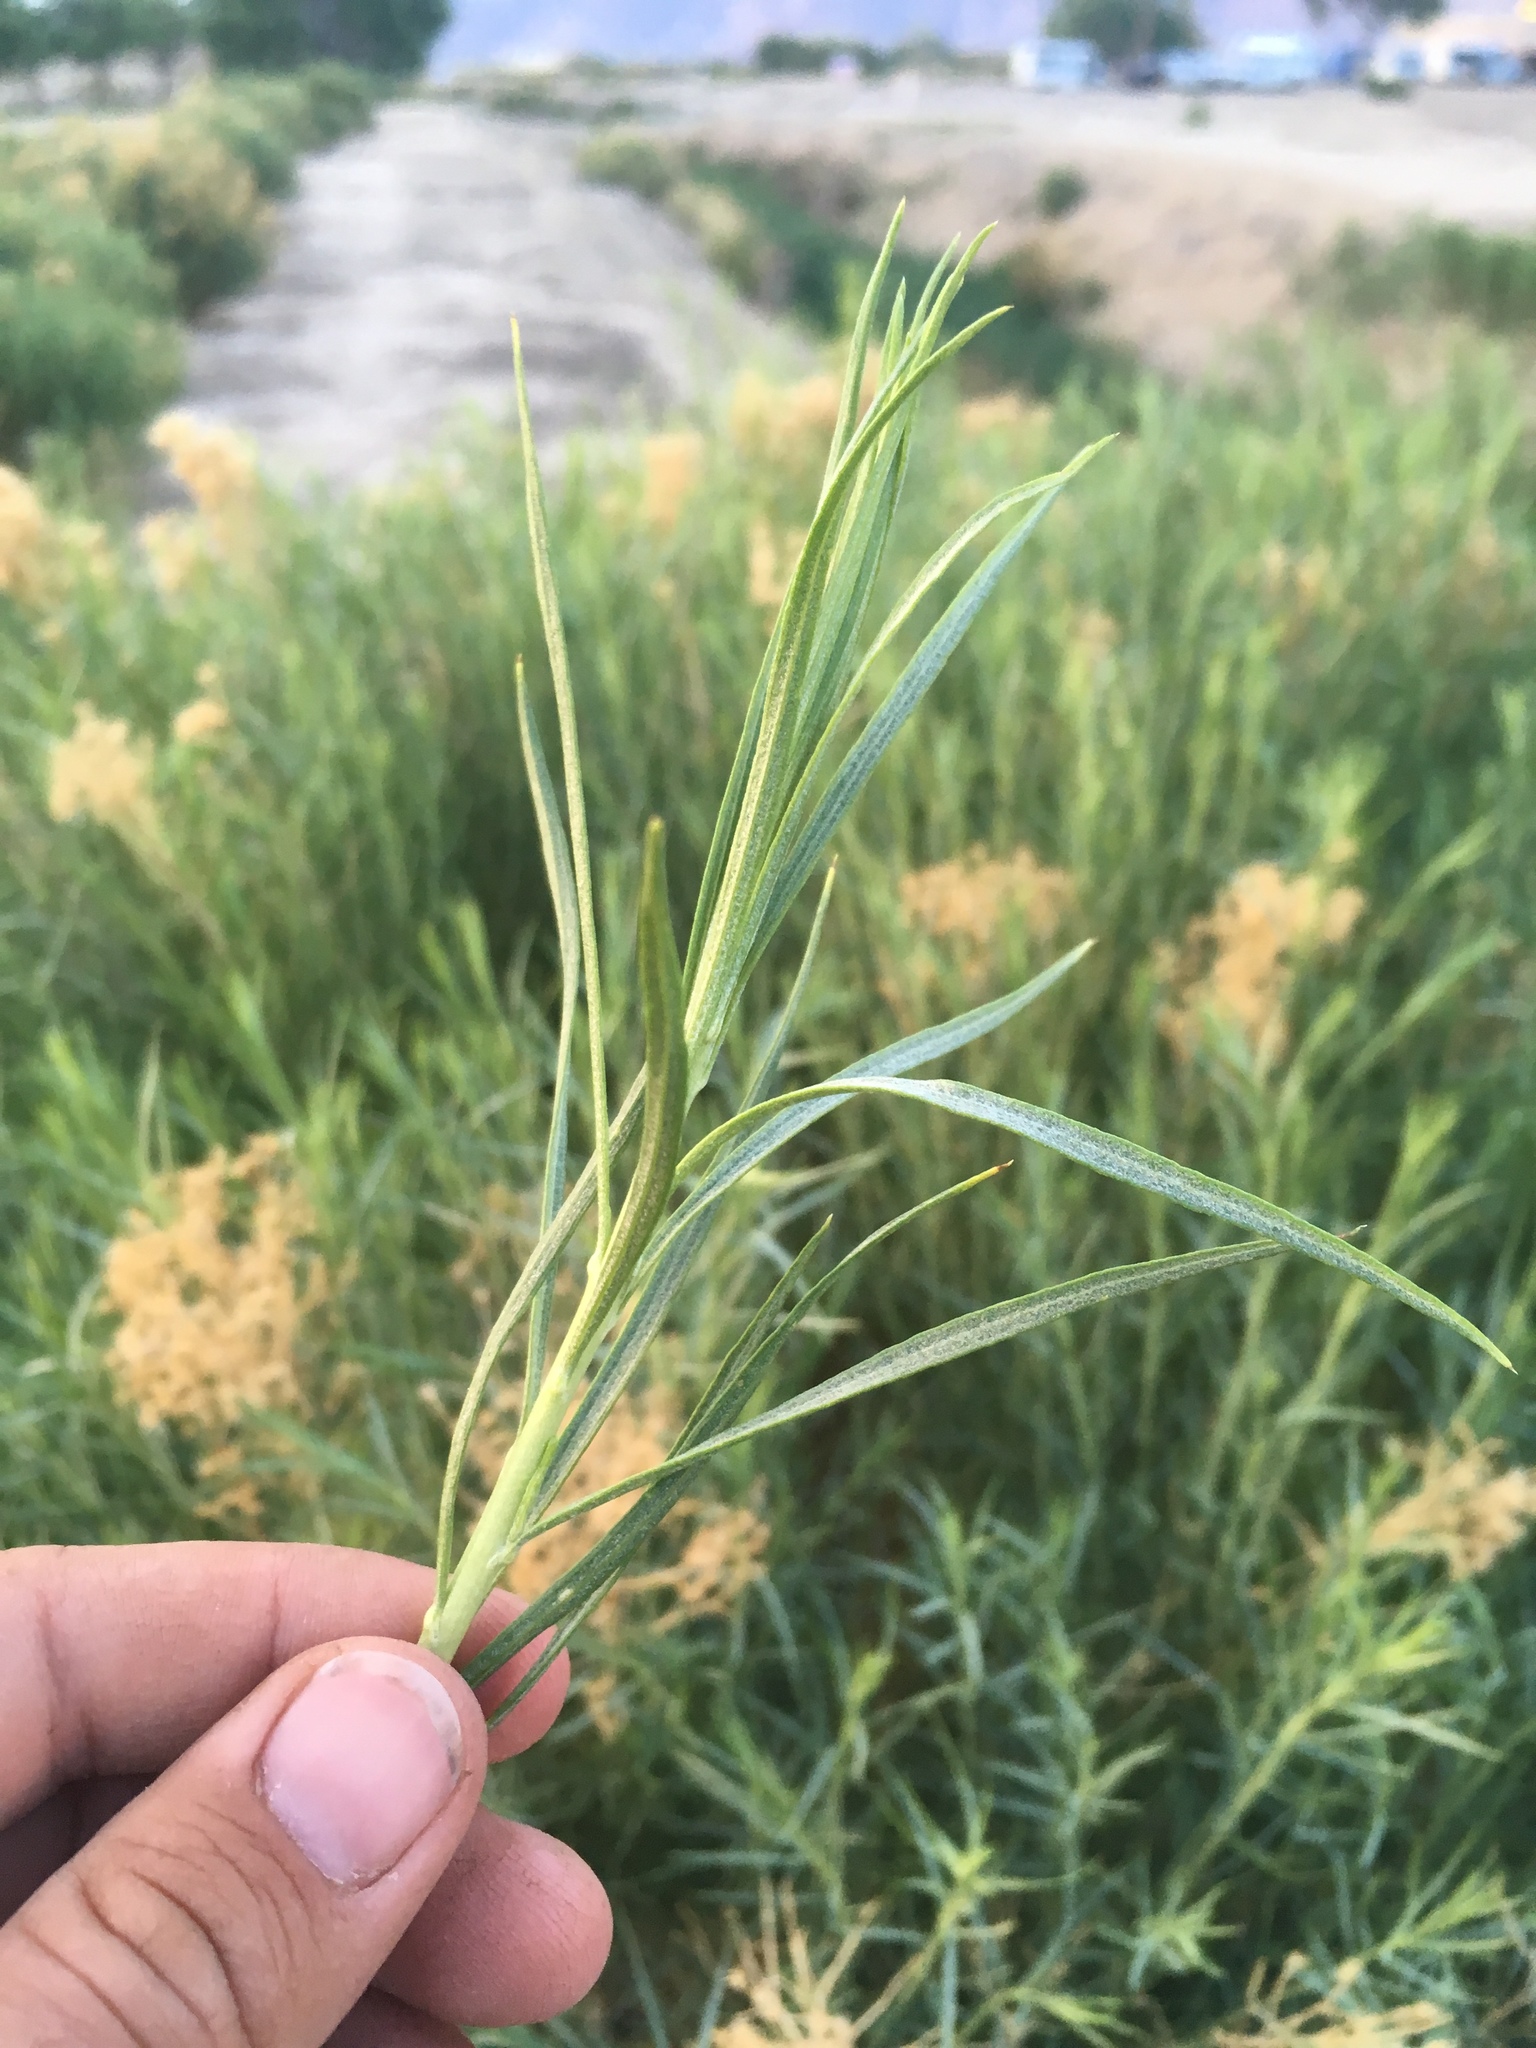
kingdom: Plantae
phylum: Tracheophyta
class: Magnoliopsida
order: Asterales
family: Asteraceae
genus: Ericameria
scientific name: Ericameria nauseosa
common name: Rubber rabbitbrush
